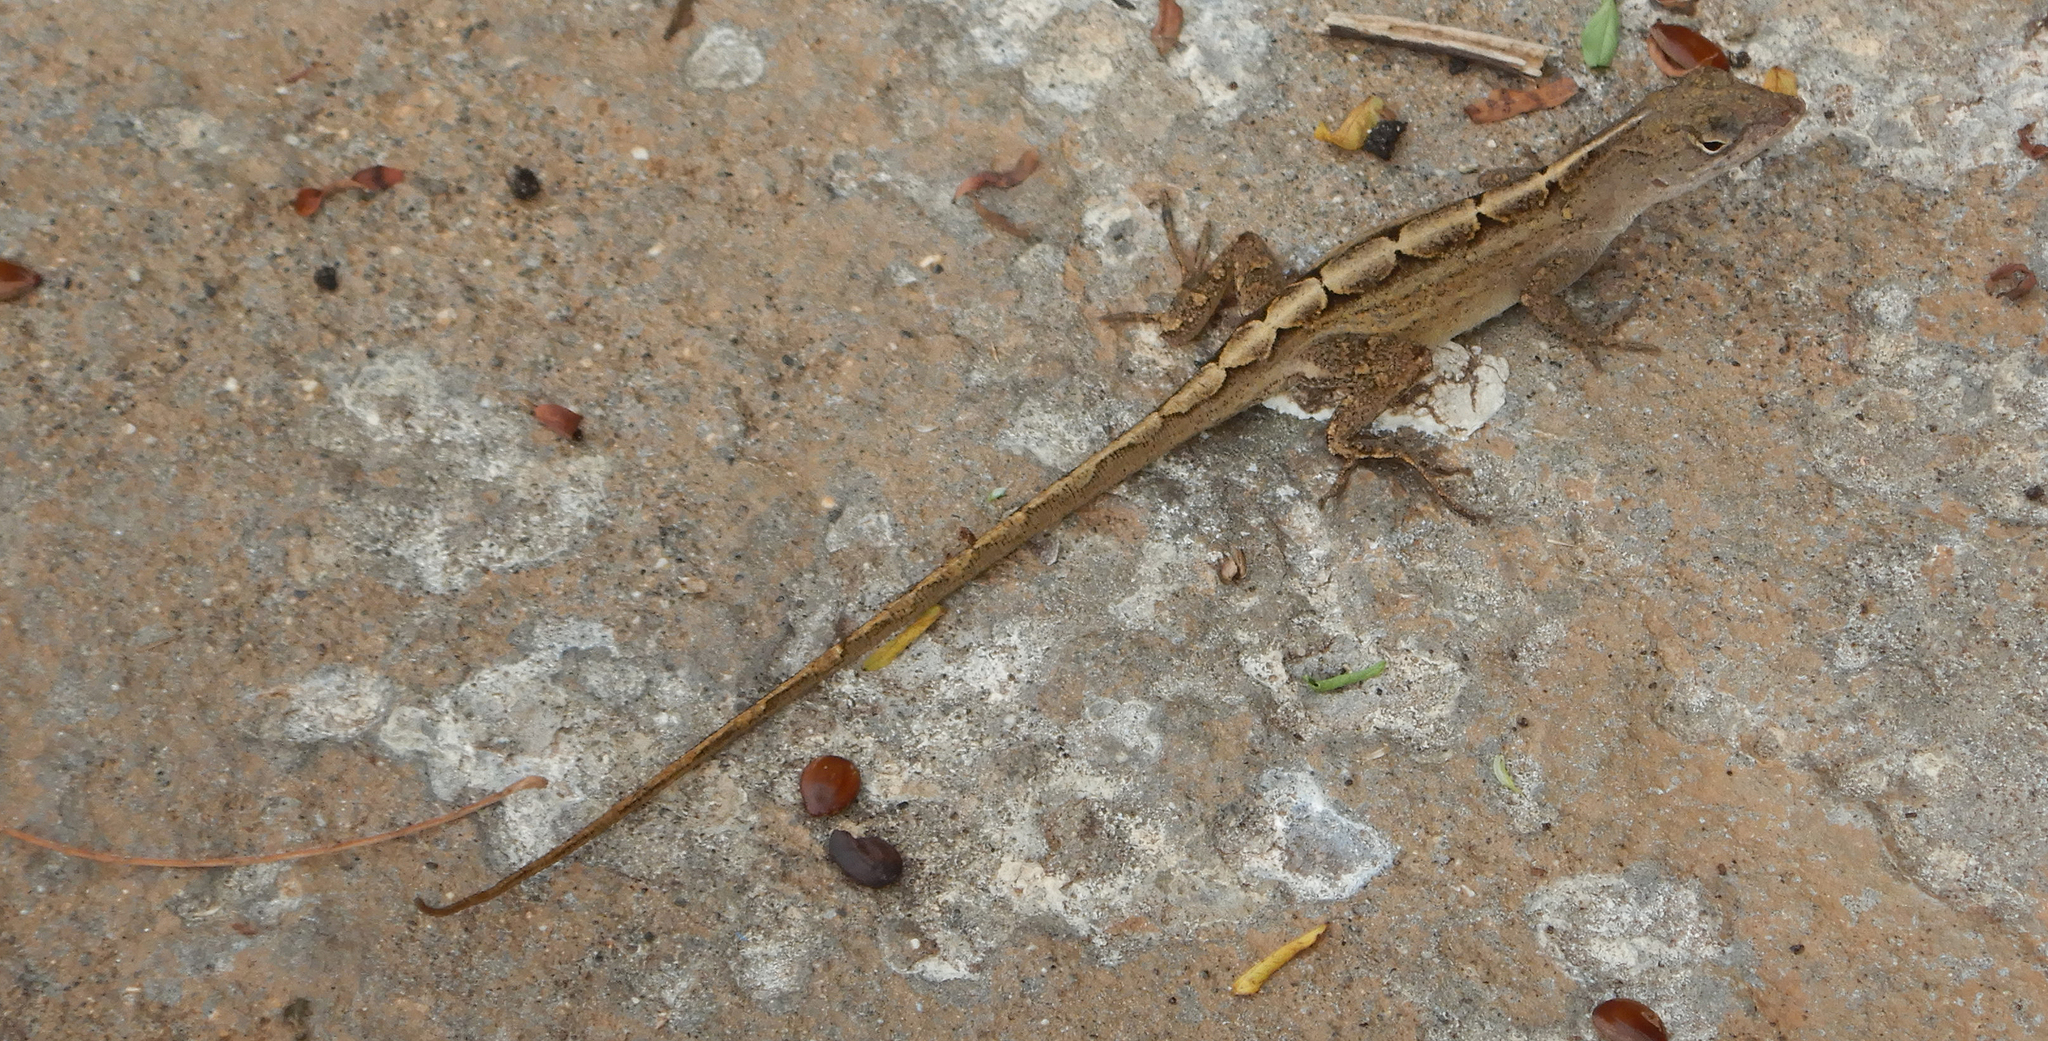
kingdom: Animalia
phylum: Chordata
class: Squamata
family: Dactyloidae
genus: Anolis
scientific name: Anolis sagrei
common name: Brown anole
